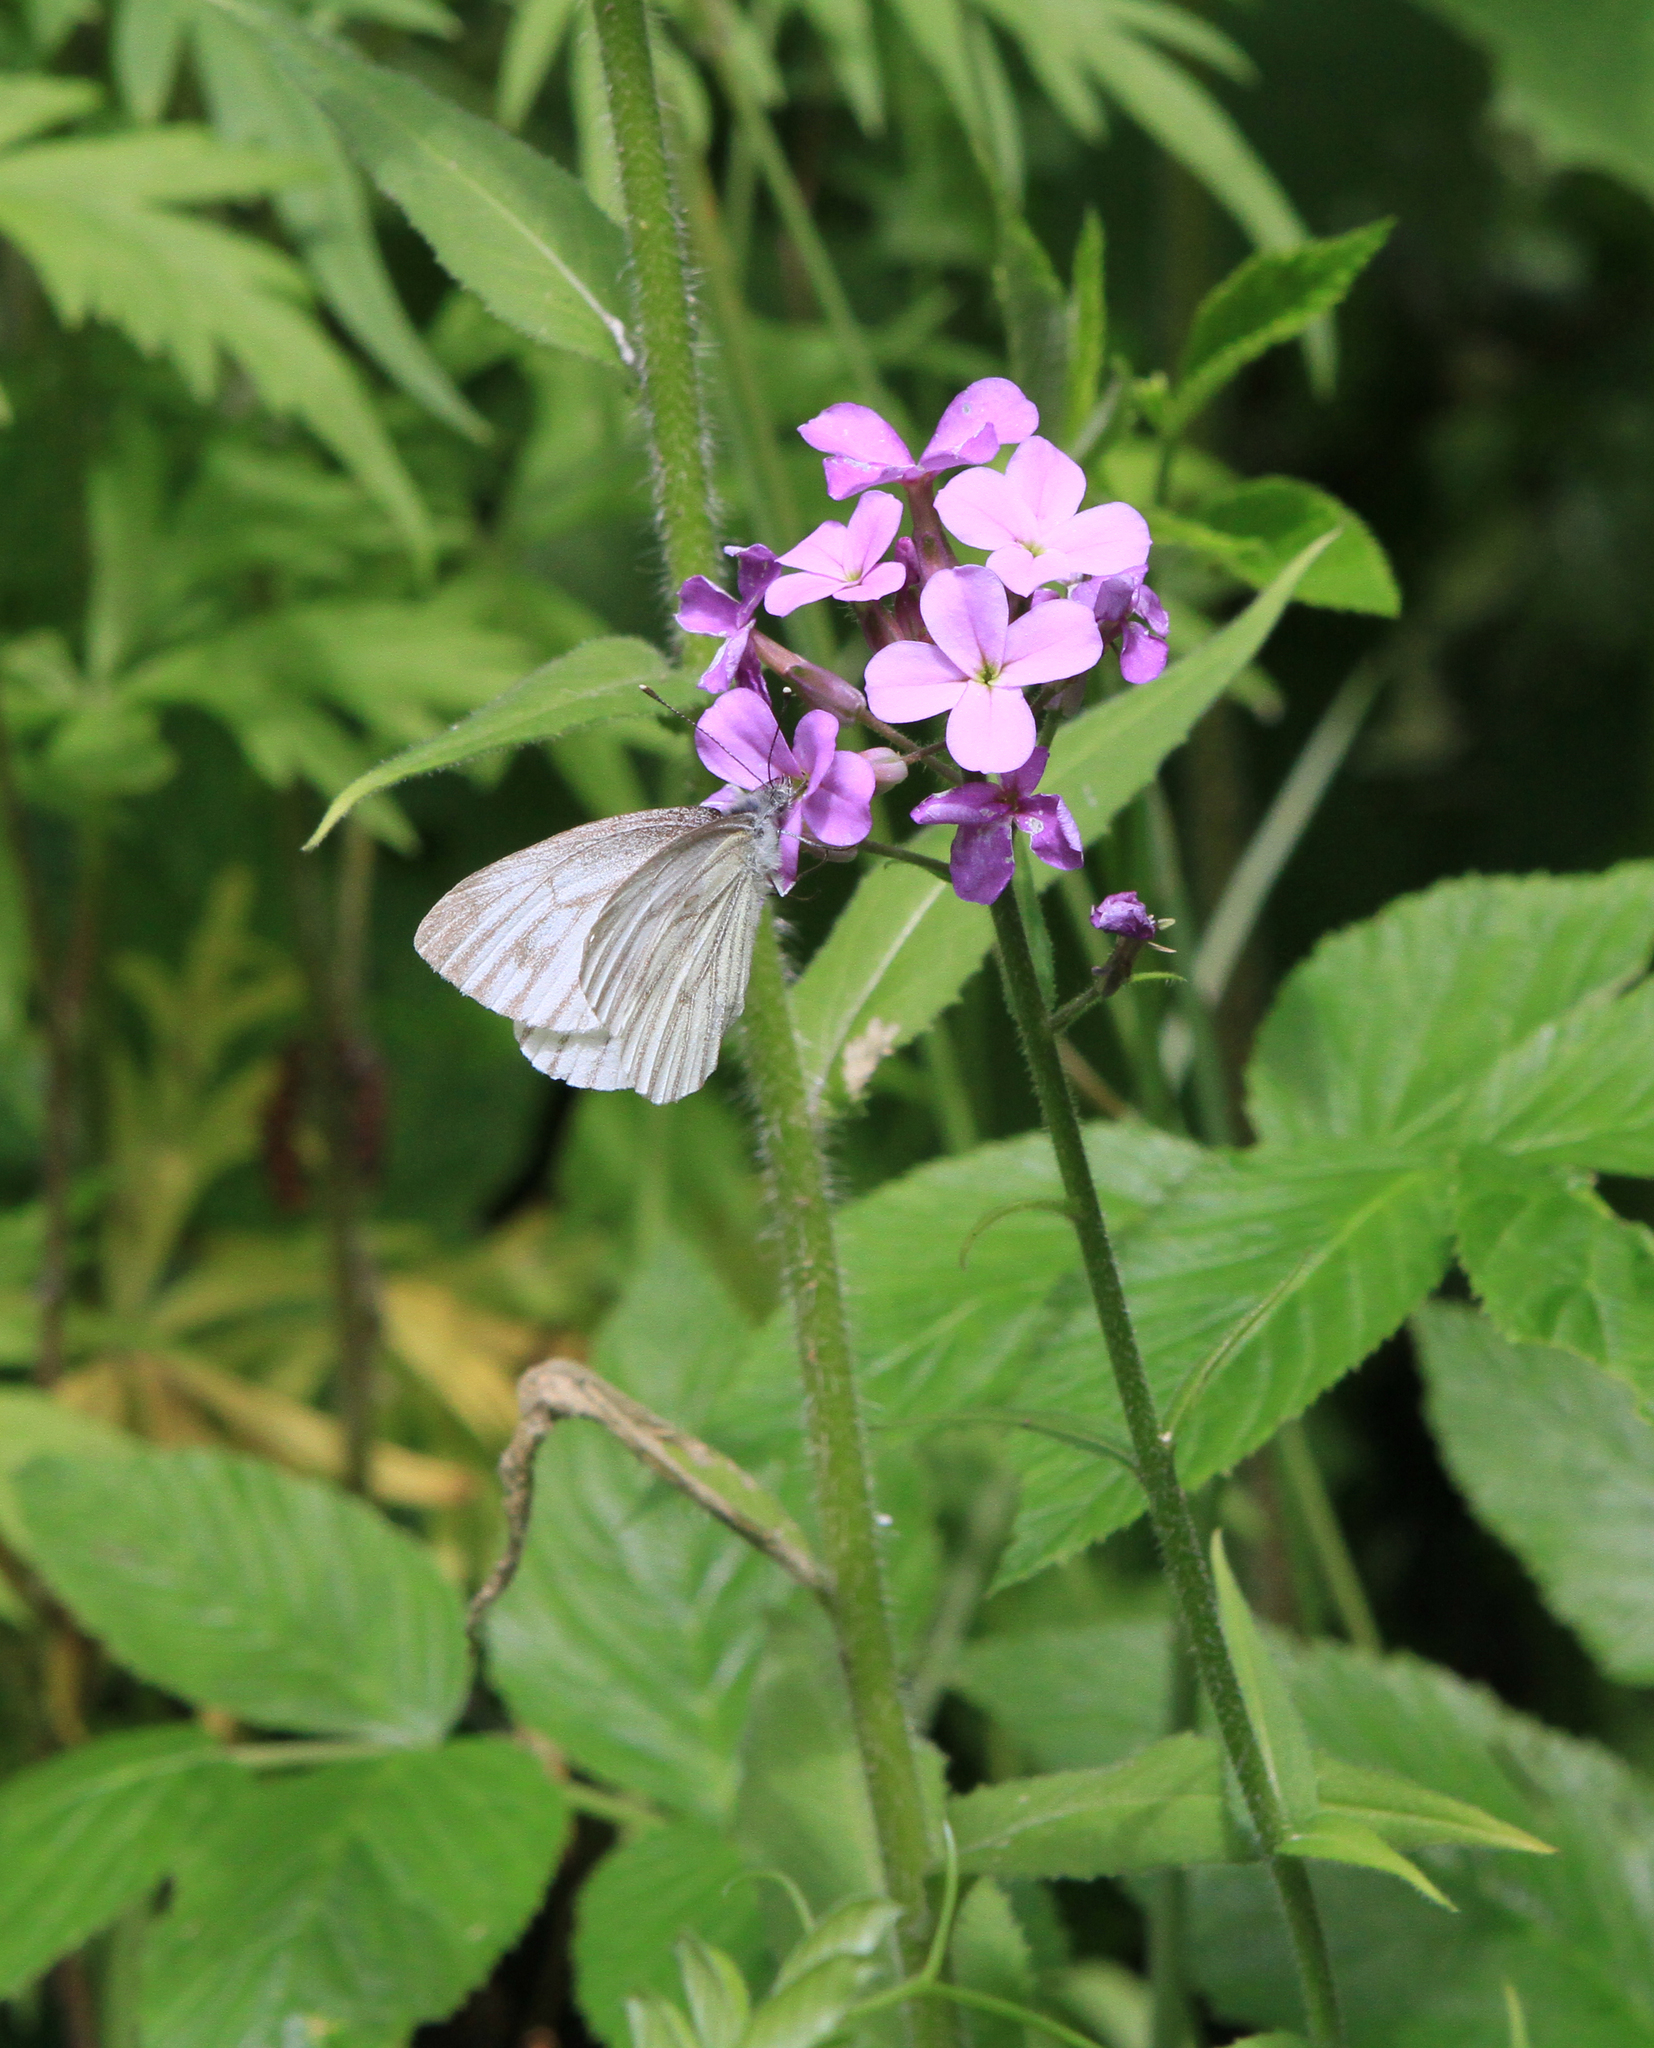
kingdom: Animalia
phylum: Arthropoda
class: Insecta
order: Lepidoptera
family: Pieridae
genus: Pieris
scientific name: Pieris napi
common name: Green-veined white
